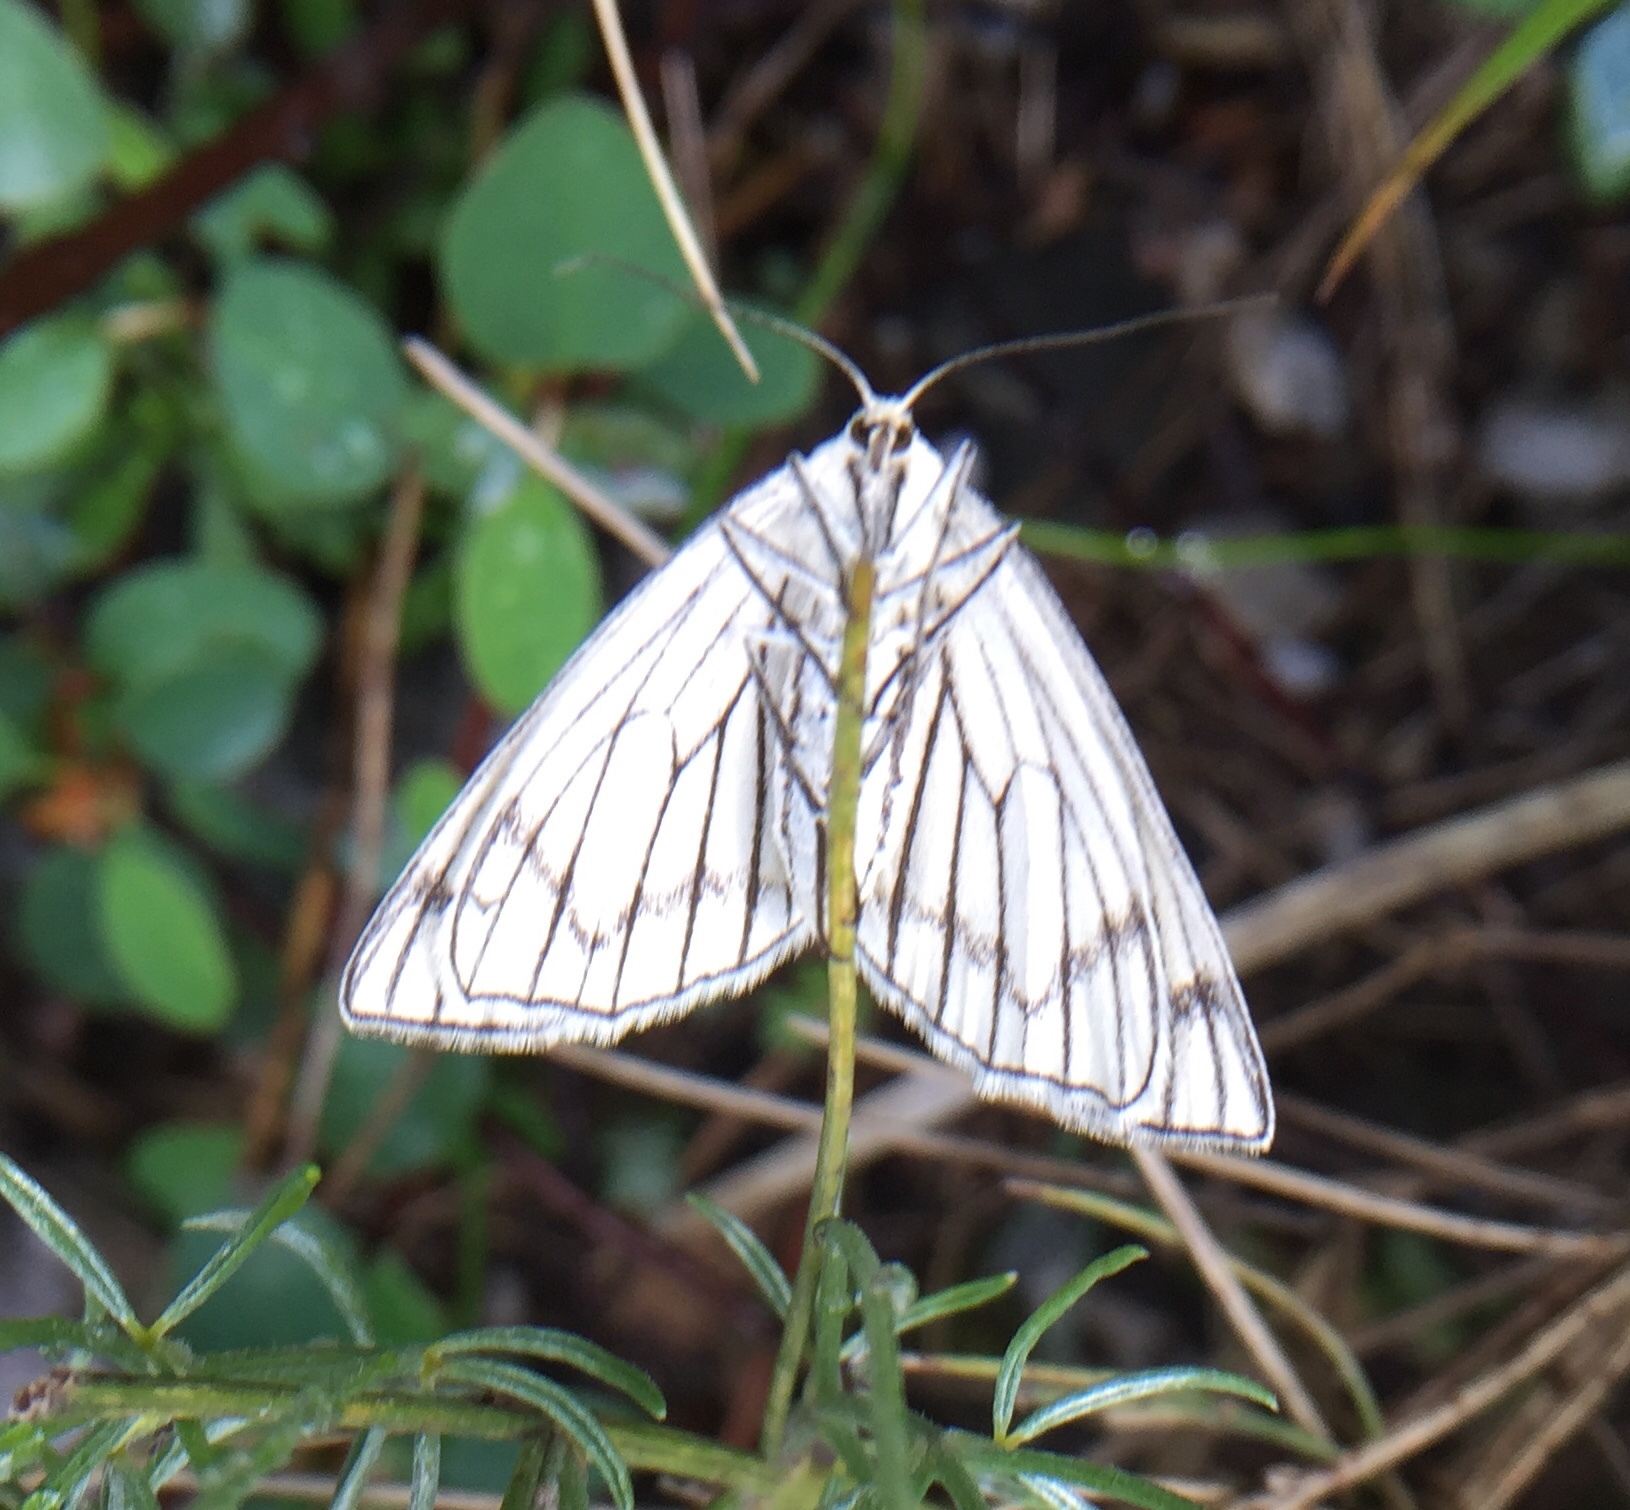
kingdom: Animalia
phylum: Arthropoda
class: Insecta
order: Lepidoptera
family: Geometridae
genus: Siona
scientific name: Siona lineata
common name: Black-veined moth
